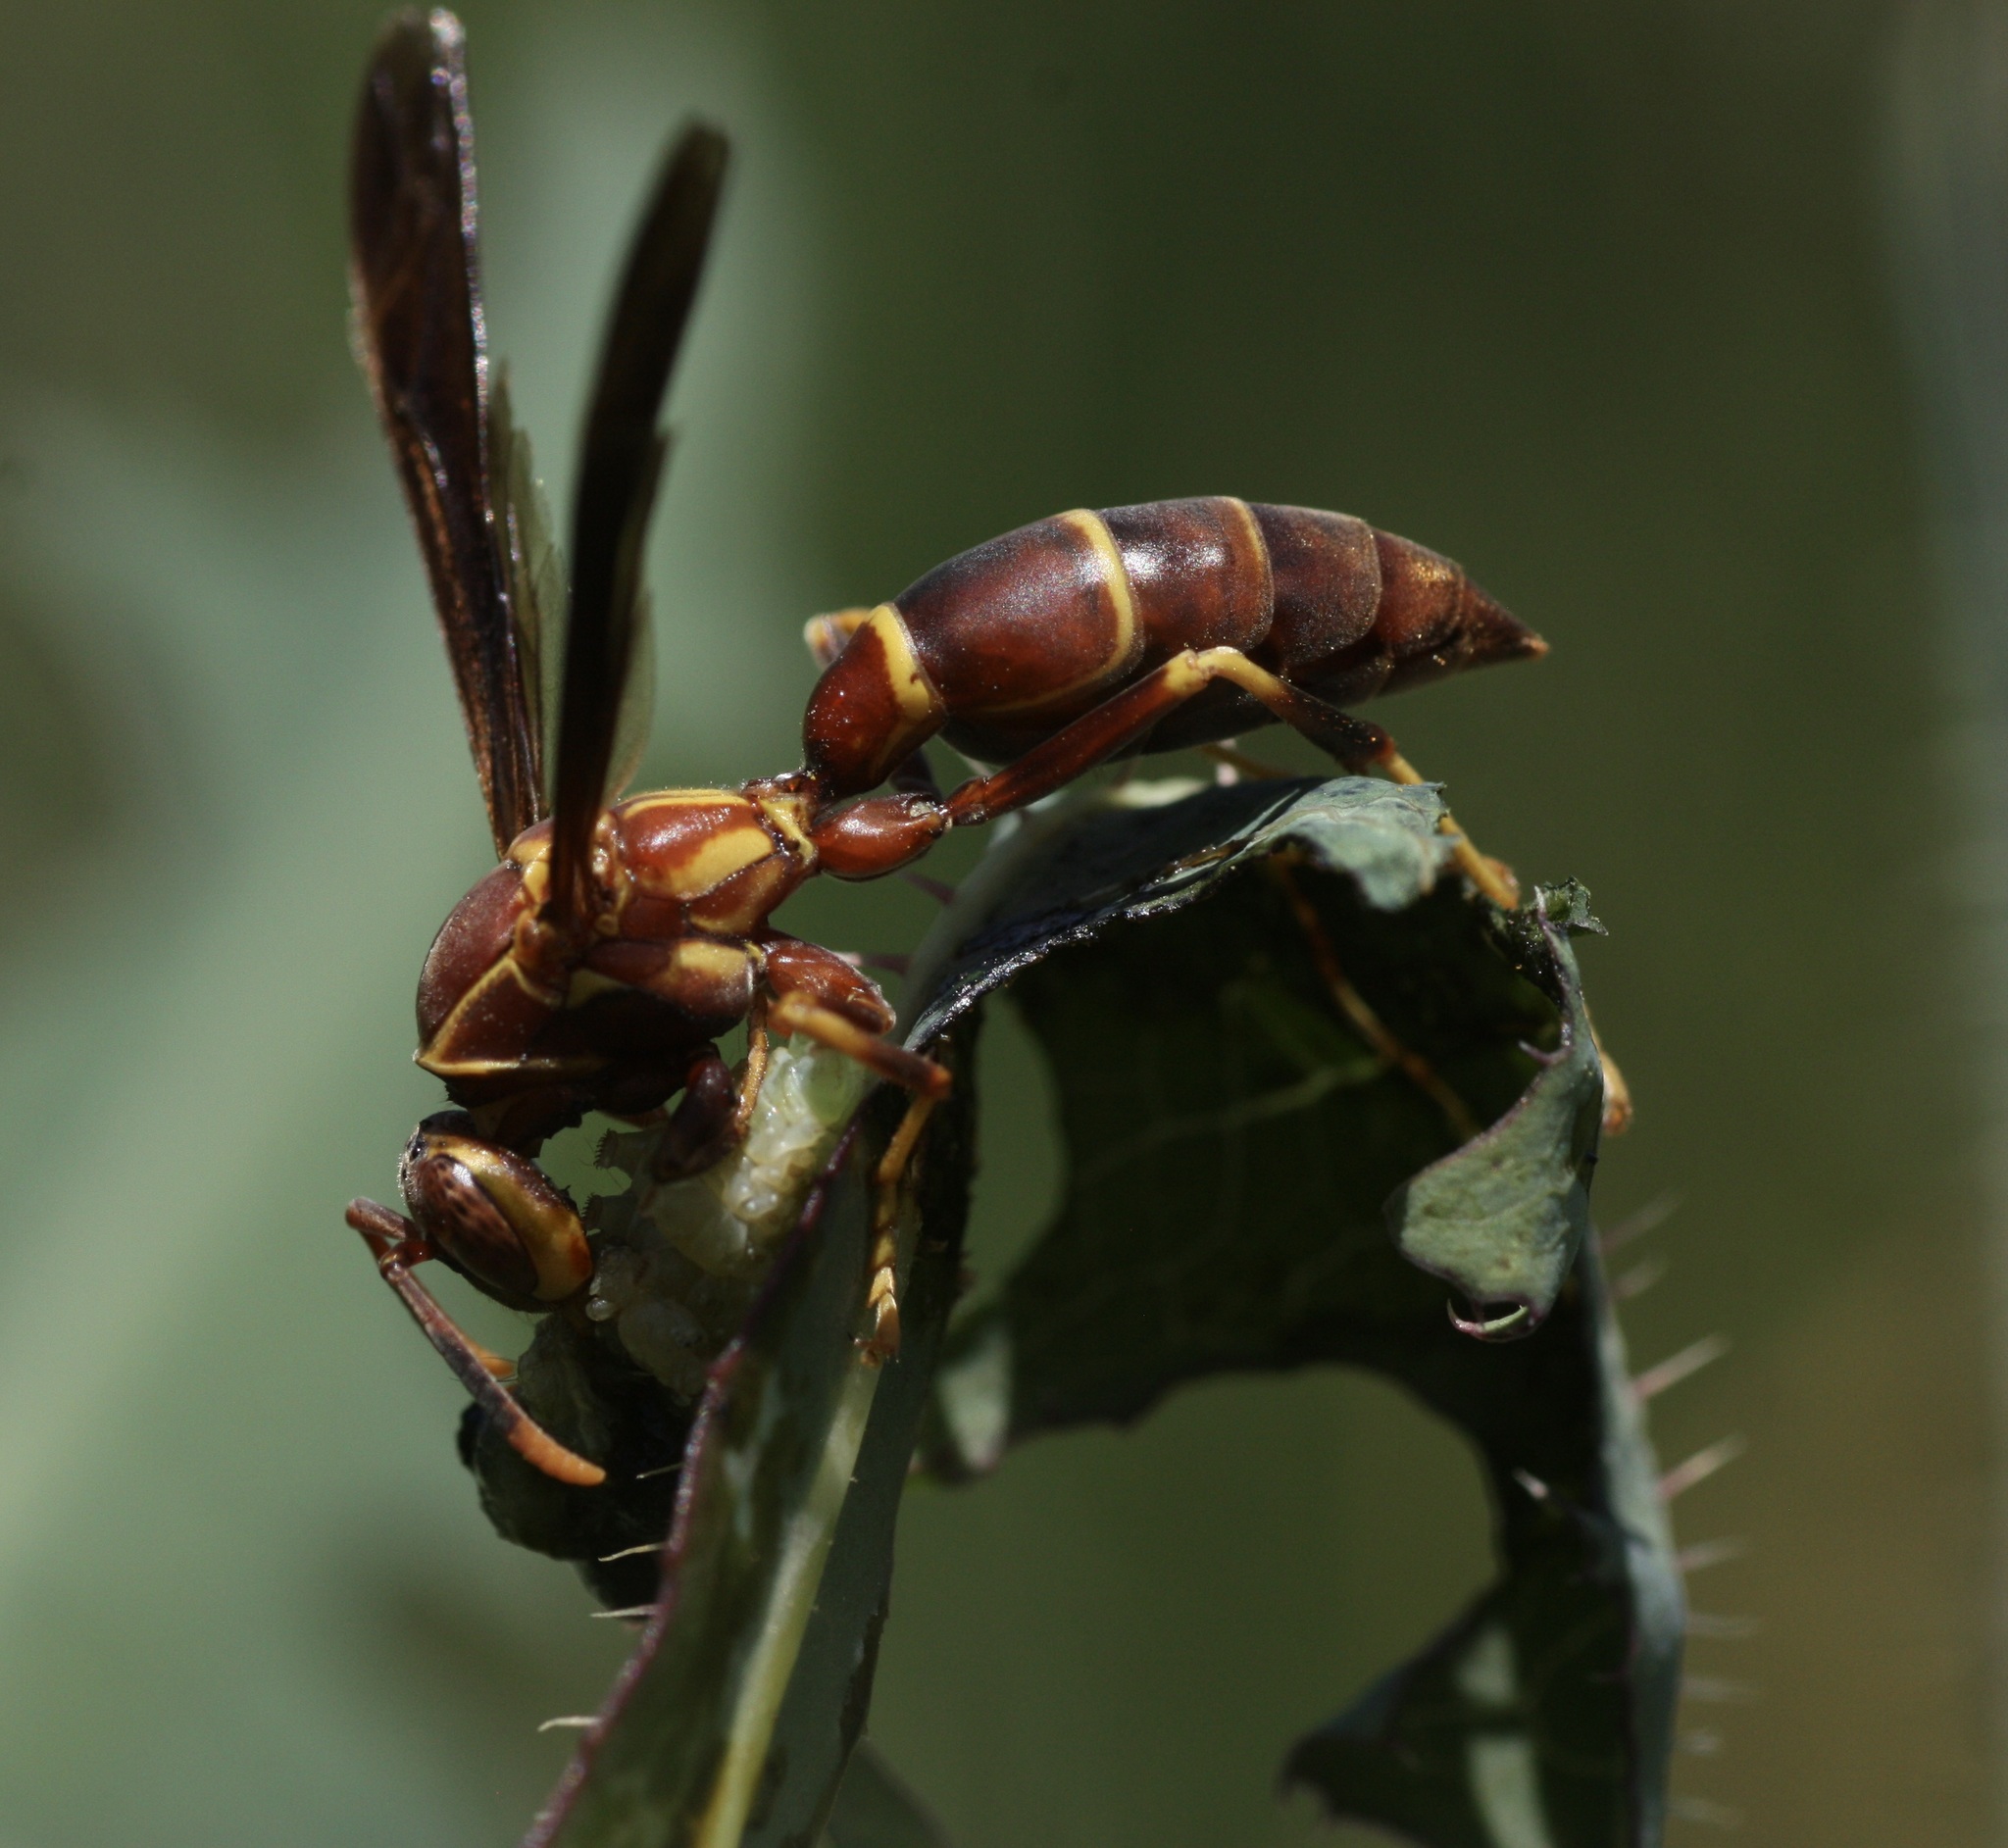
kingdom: Animalia
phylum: Arthropoda
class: Insecta
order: Hymenoptera
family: Eumenidae
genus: Polistes
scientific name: Polistes arizonensis
